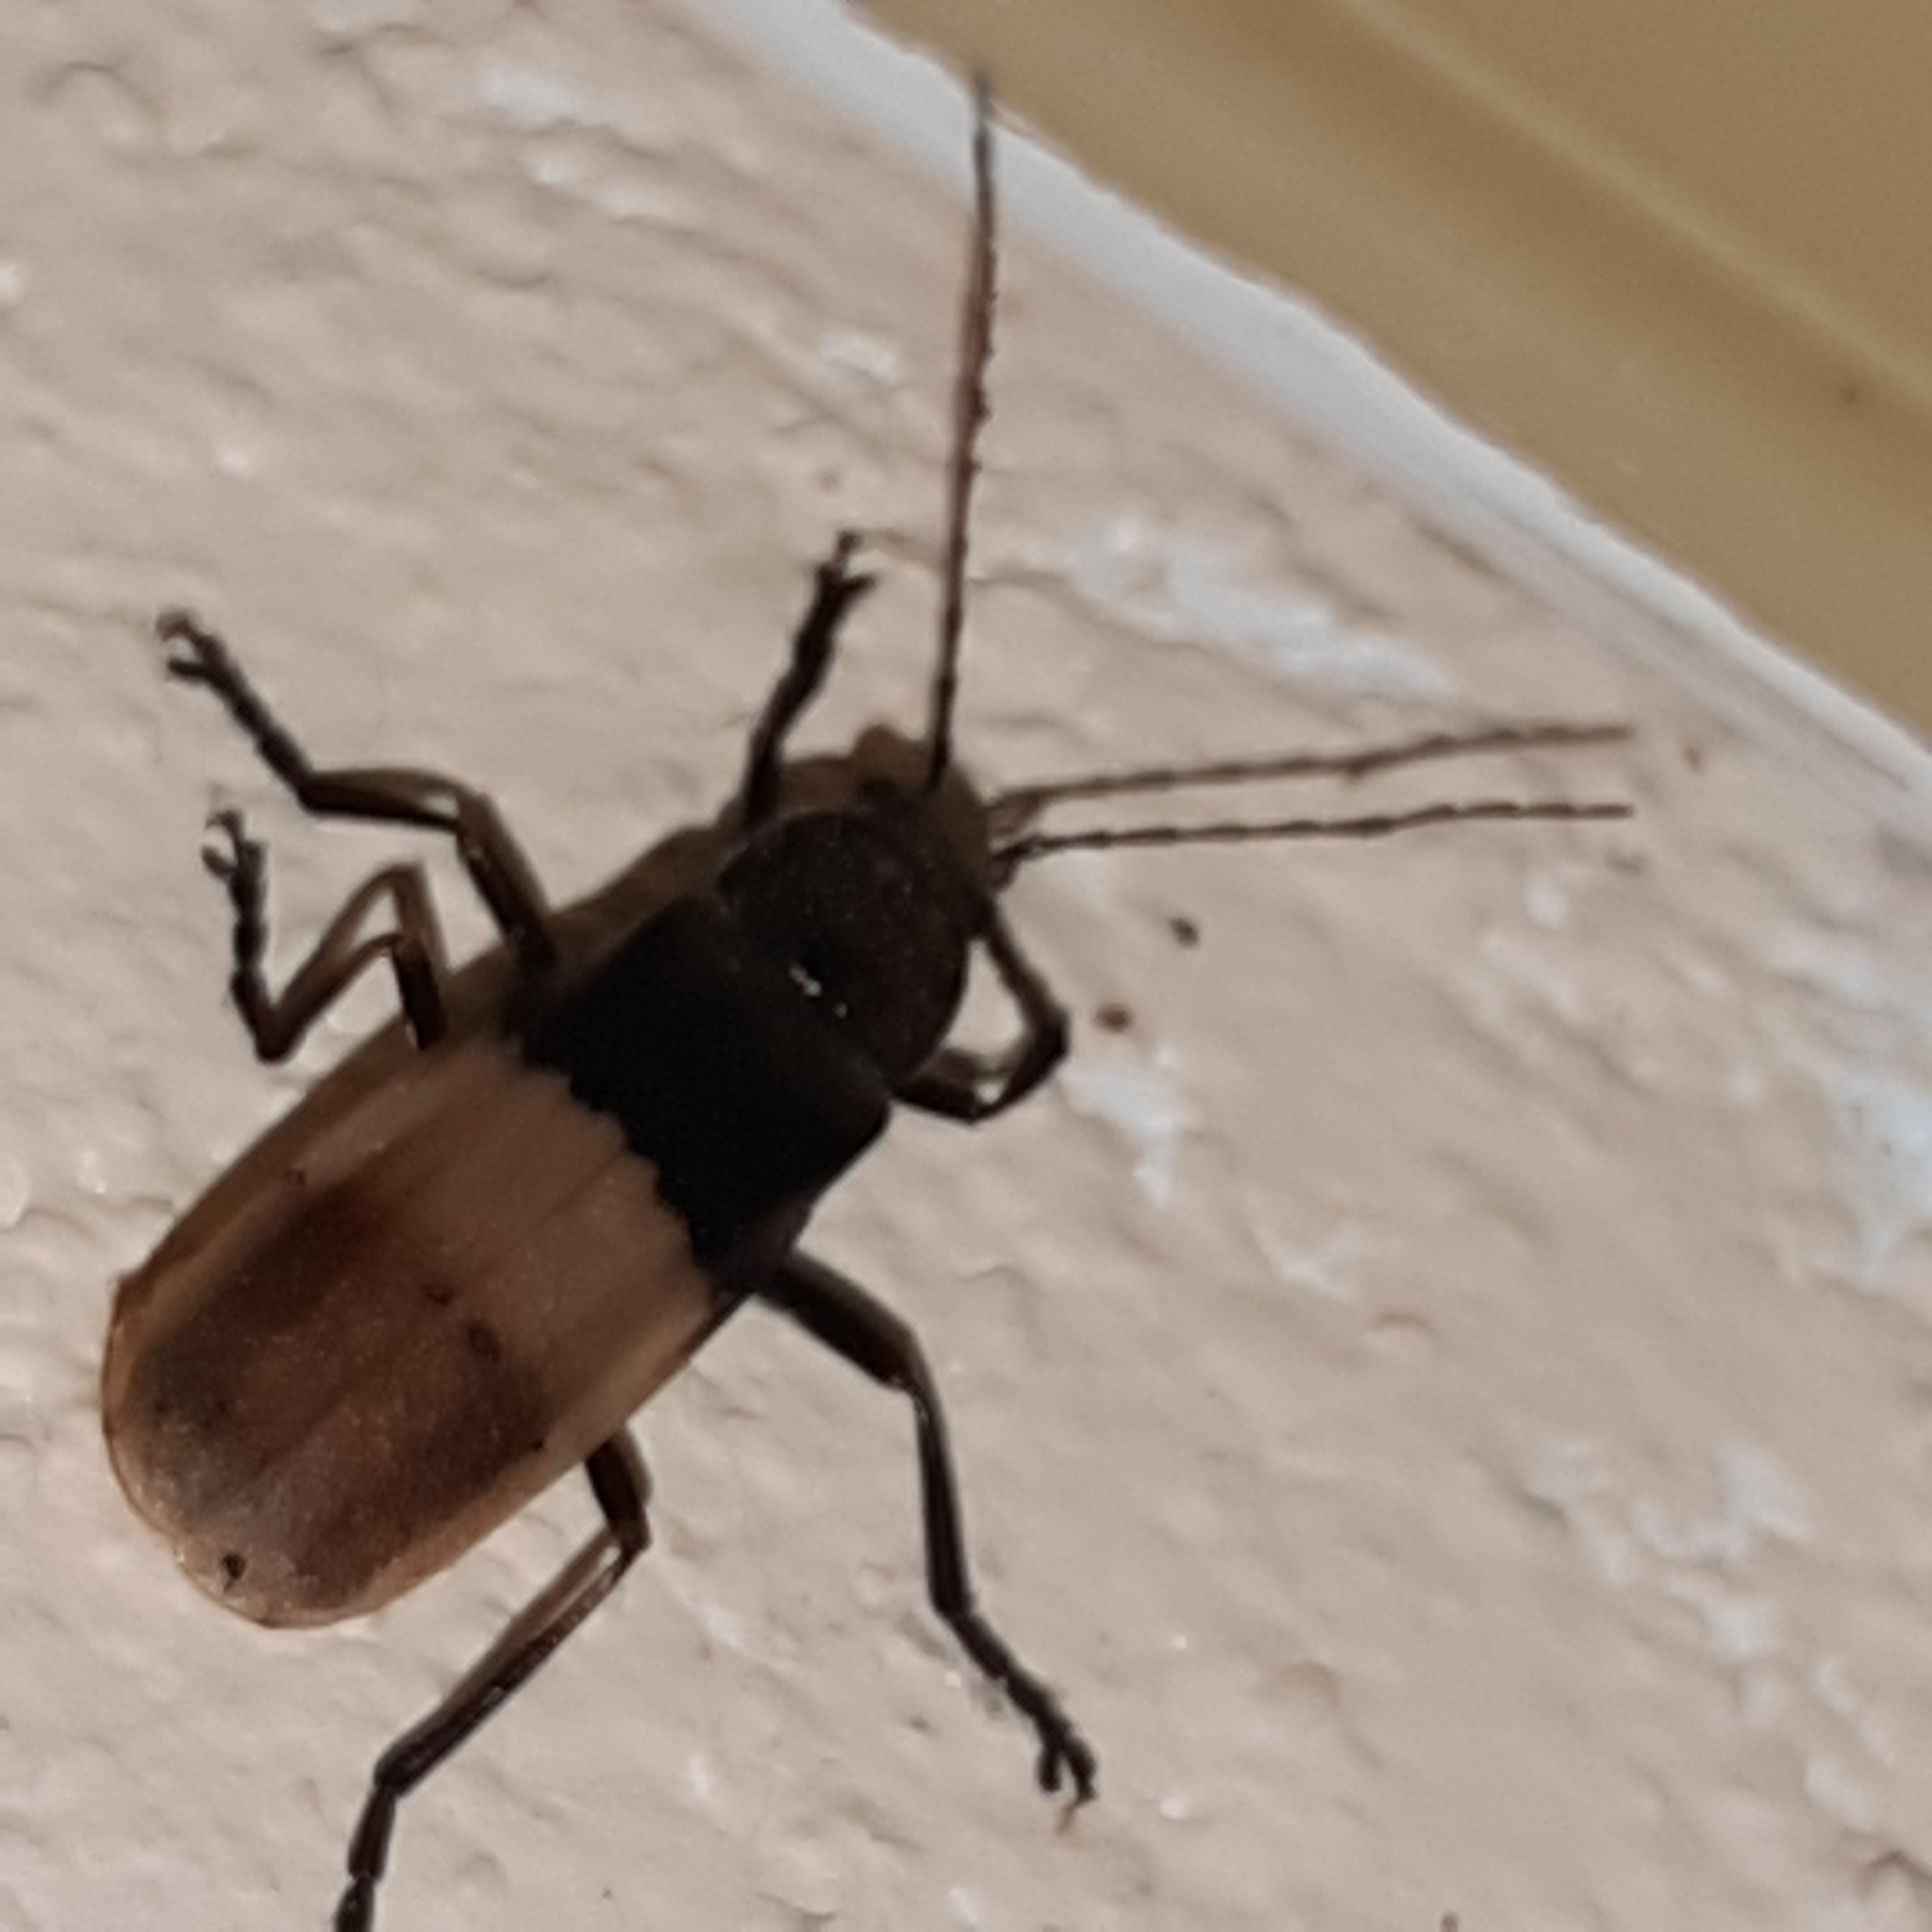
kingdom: Animalia
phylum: Arthropoda
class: Insecta
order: Coleoptera
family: Cantharidae
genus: Chauliognathus
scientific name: Chauliognathus
